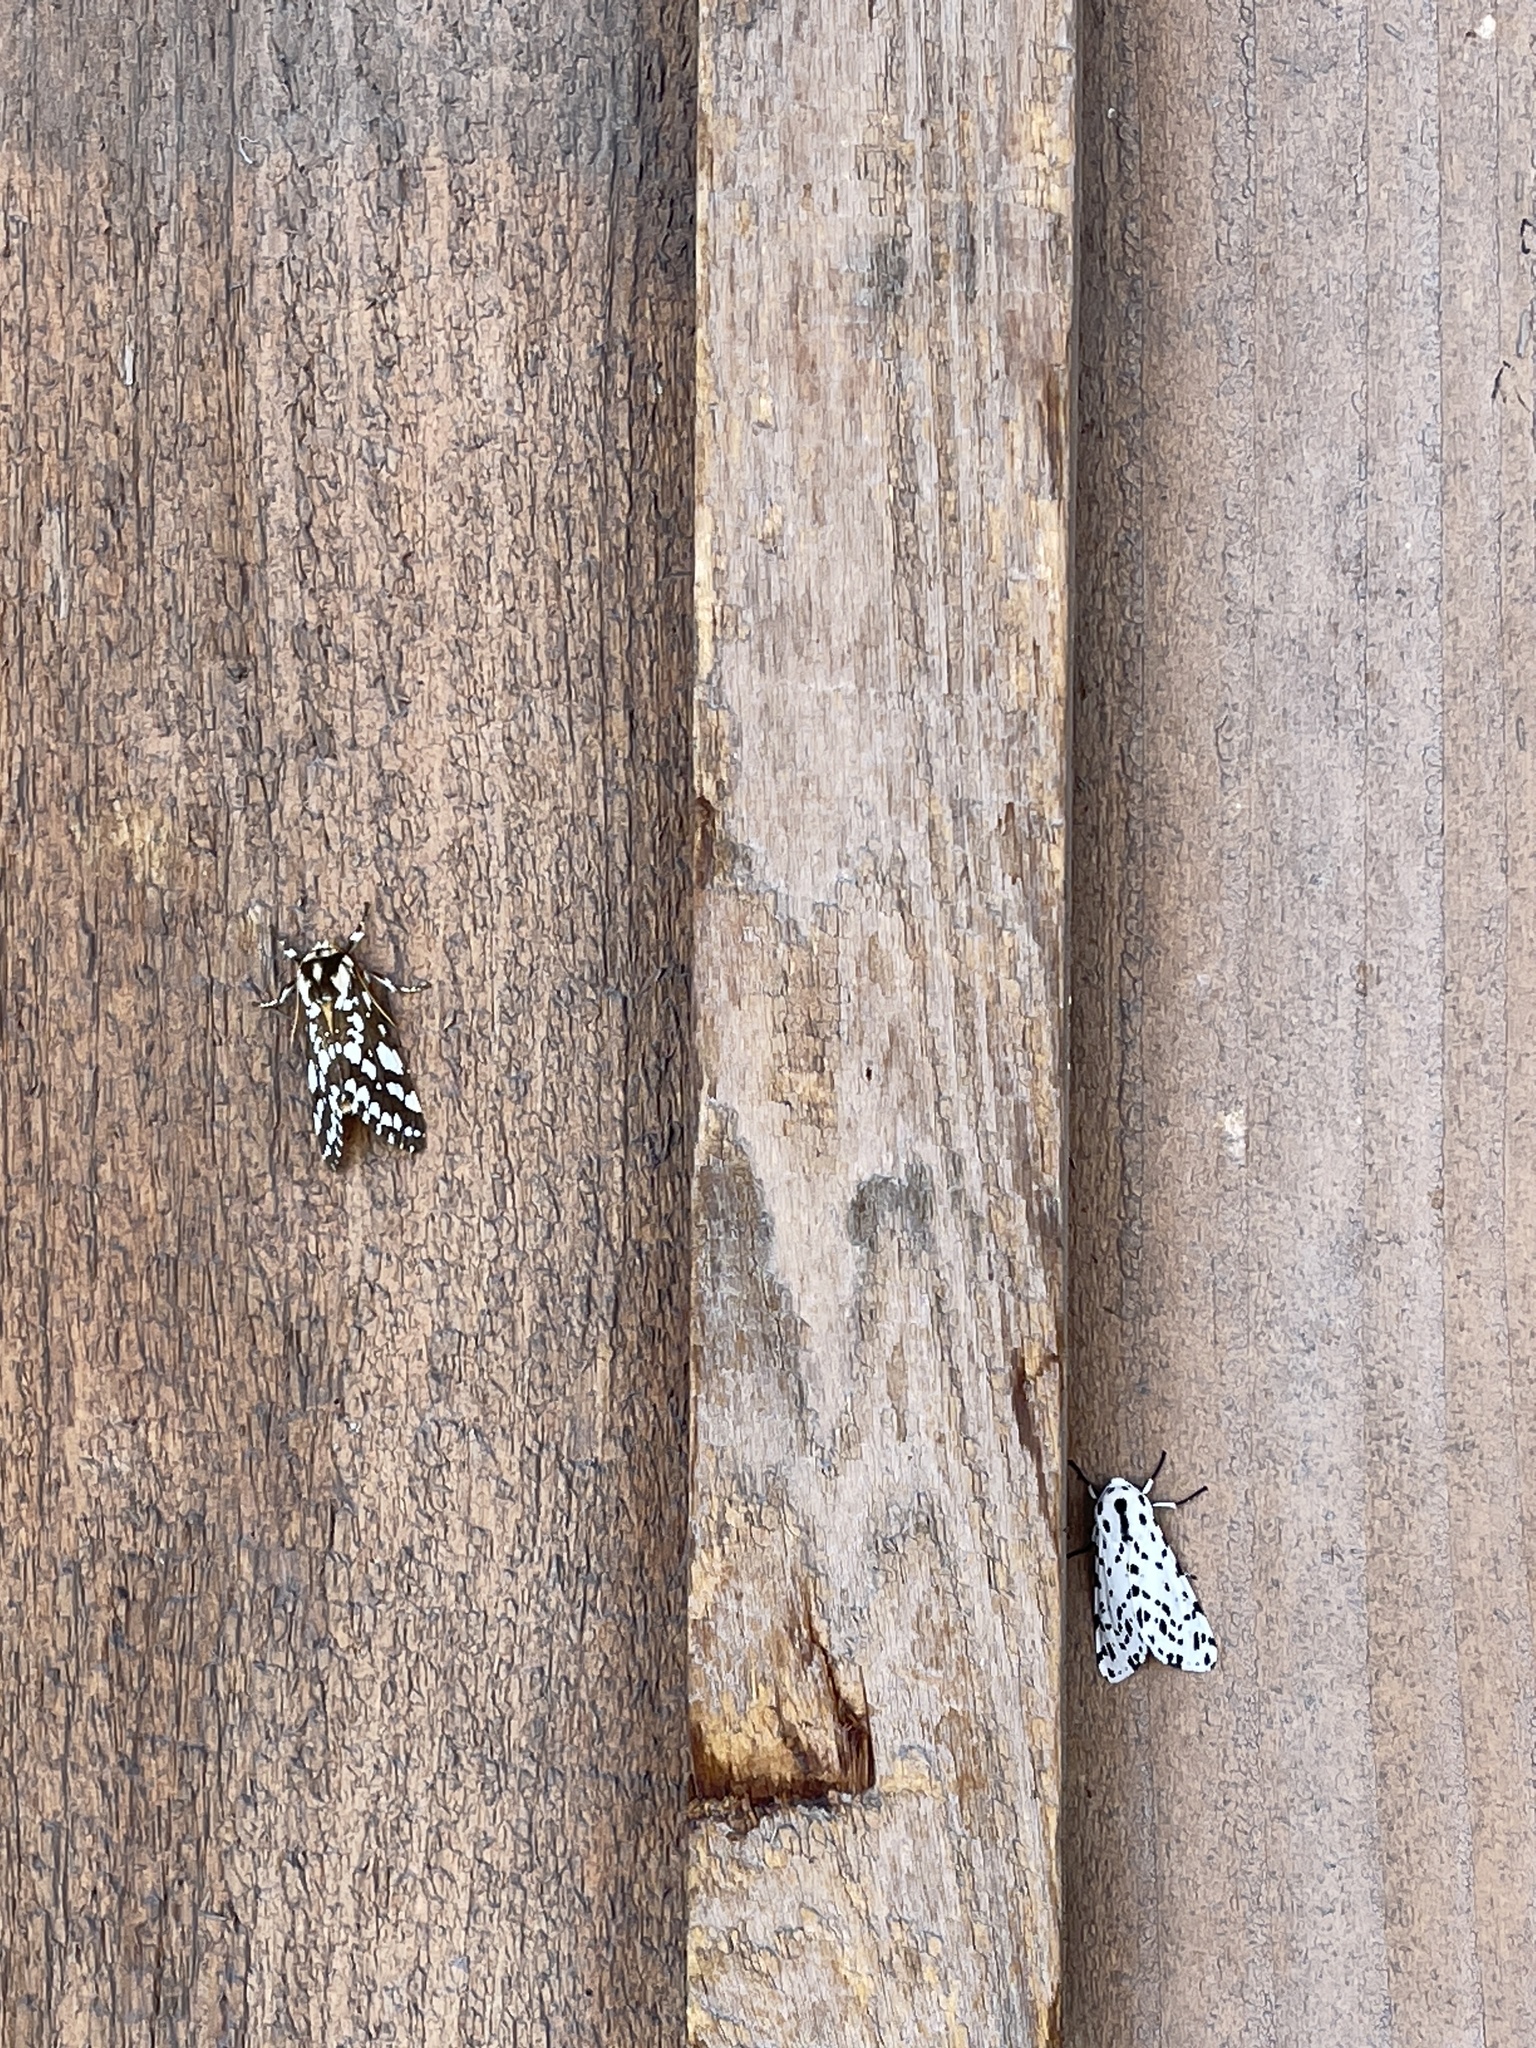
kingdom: Animalia
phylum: Arthropoda
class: Insecta
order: Lepidoptera
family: Erebidae
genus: Lophocampa
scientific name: Lophocampa ingens
